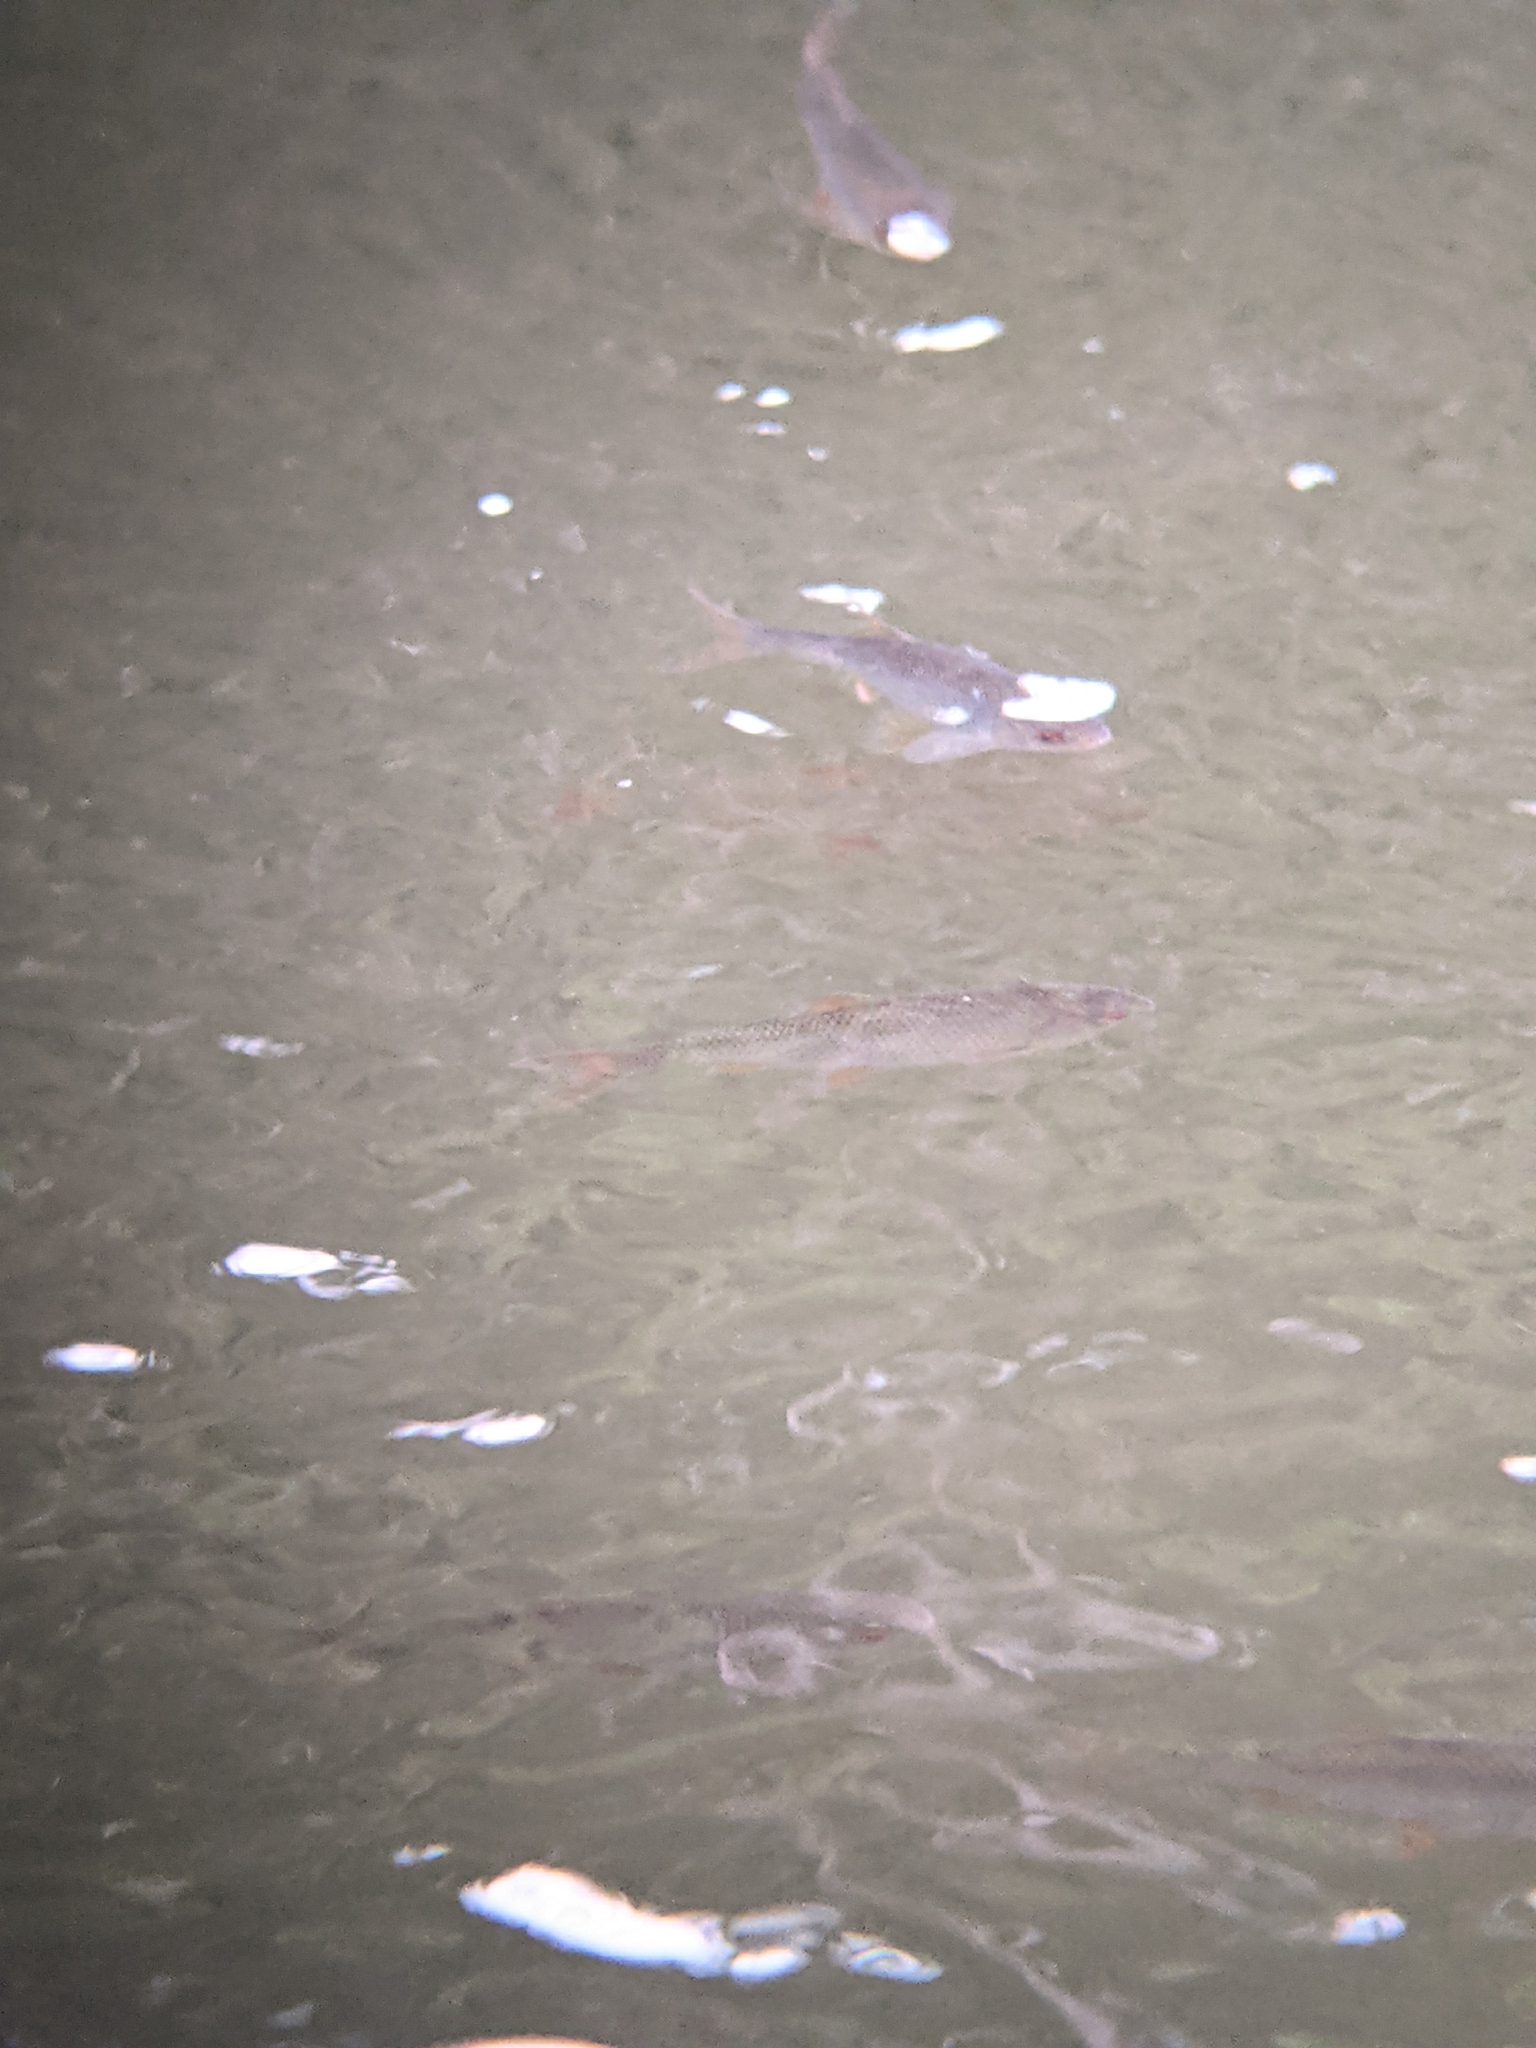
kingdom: Animalia
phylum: Chordata
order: Cypriniformes
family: Cyprinidae
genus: Scardinius
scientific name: Scardinius erythrophthalmus
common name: Rudd
